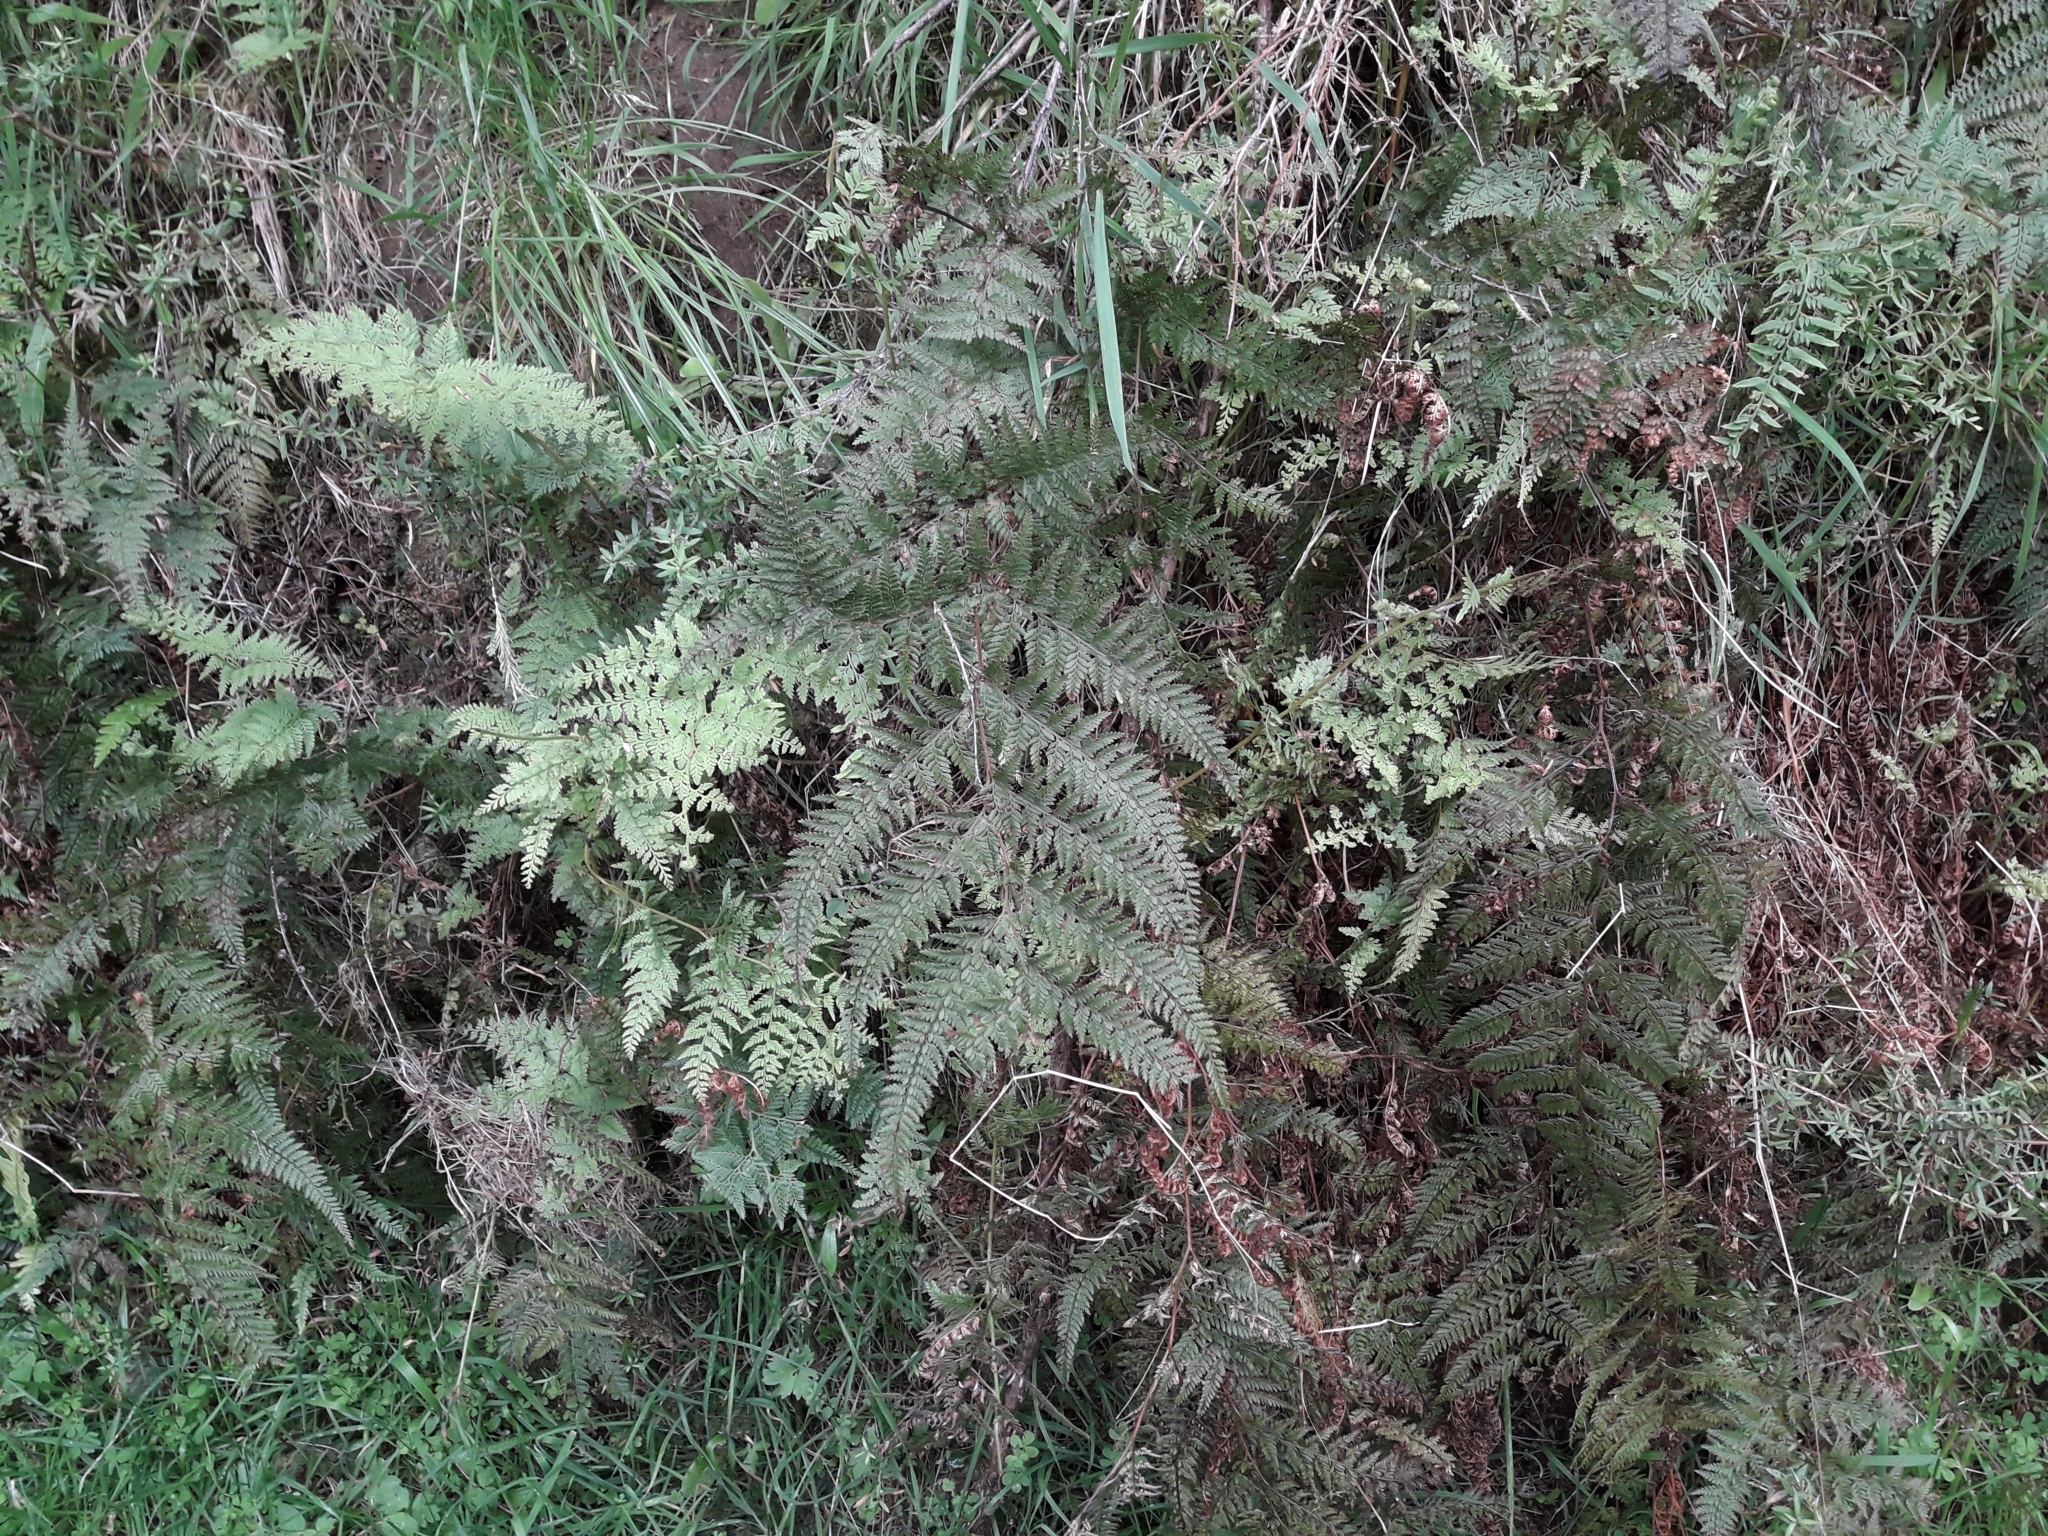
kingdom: Plantae
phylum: Tracheophyta
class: Polypodiopsida
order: Polypodiales
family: Dennstaedtiaceae
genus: Paesia
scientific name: Paesia scaberula
